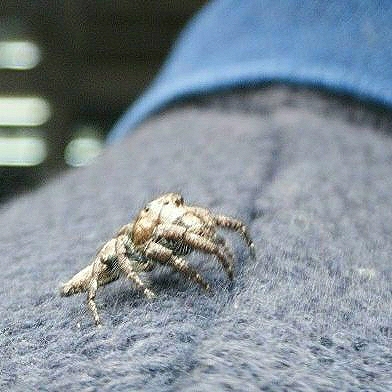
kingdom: Animalia
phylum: Arthropoda
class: Arachnida
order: Araneae
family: Salticidae
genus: Hyllus
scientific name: Hyllus semicupreus
